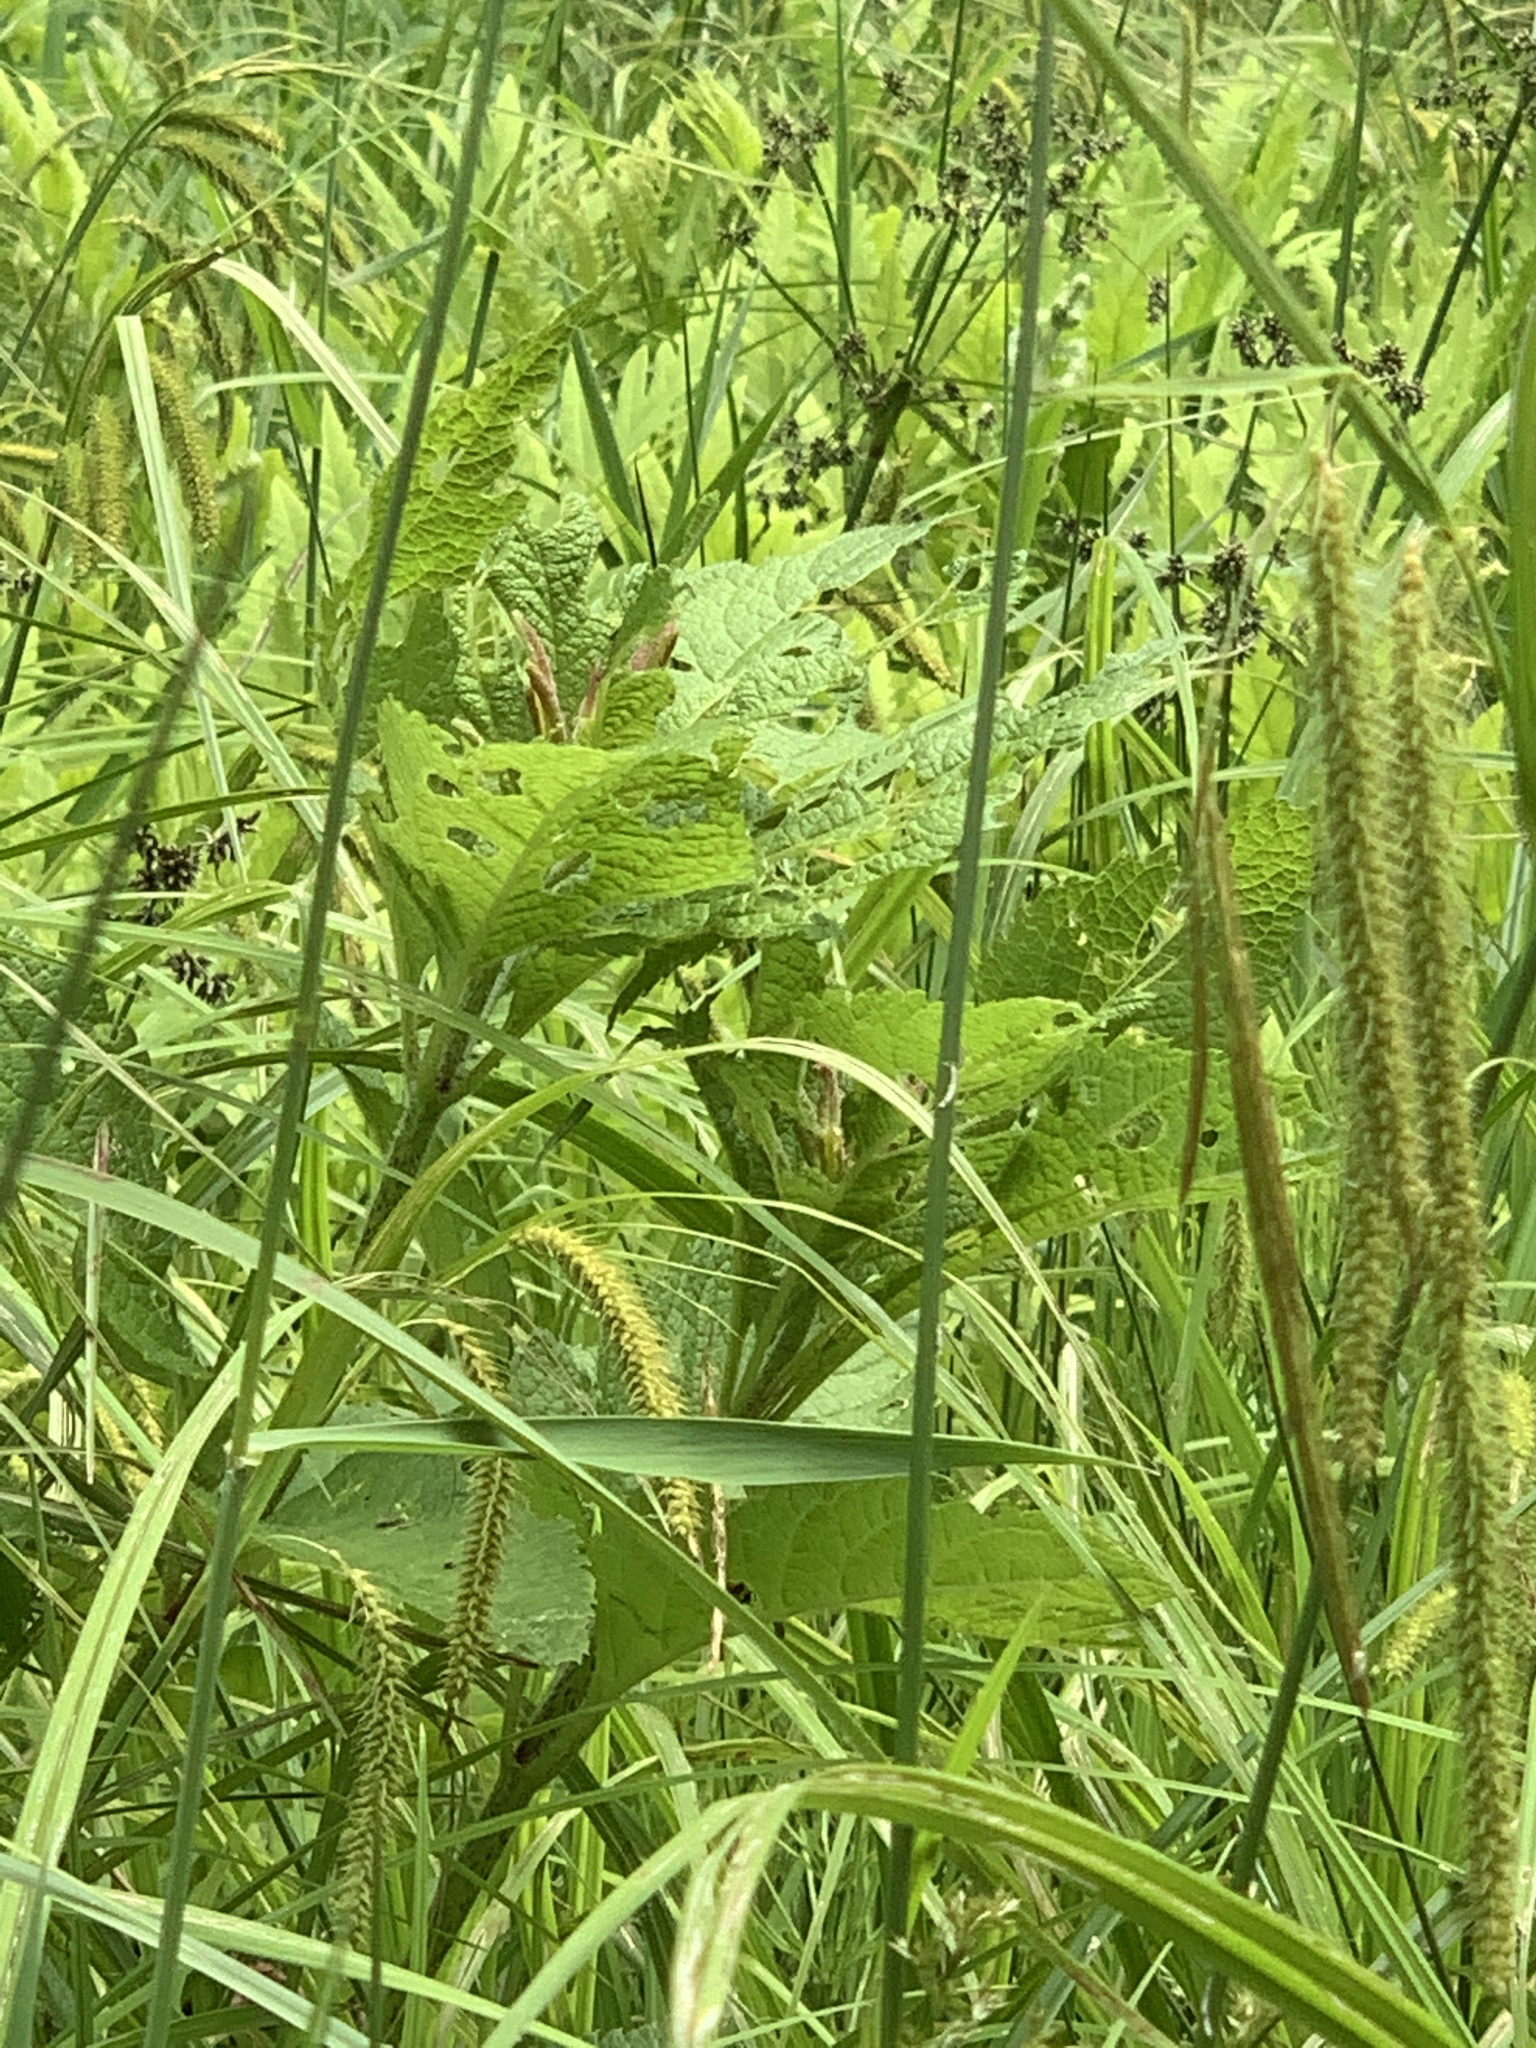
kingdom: Plantae
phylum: Tracheophyta
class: Magnoliopsida
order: Asterales
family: Asteraceae
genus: Eutrochium
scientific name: Eutrochium maculatum
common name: Spotted joe pye weed
